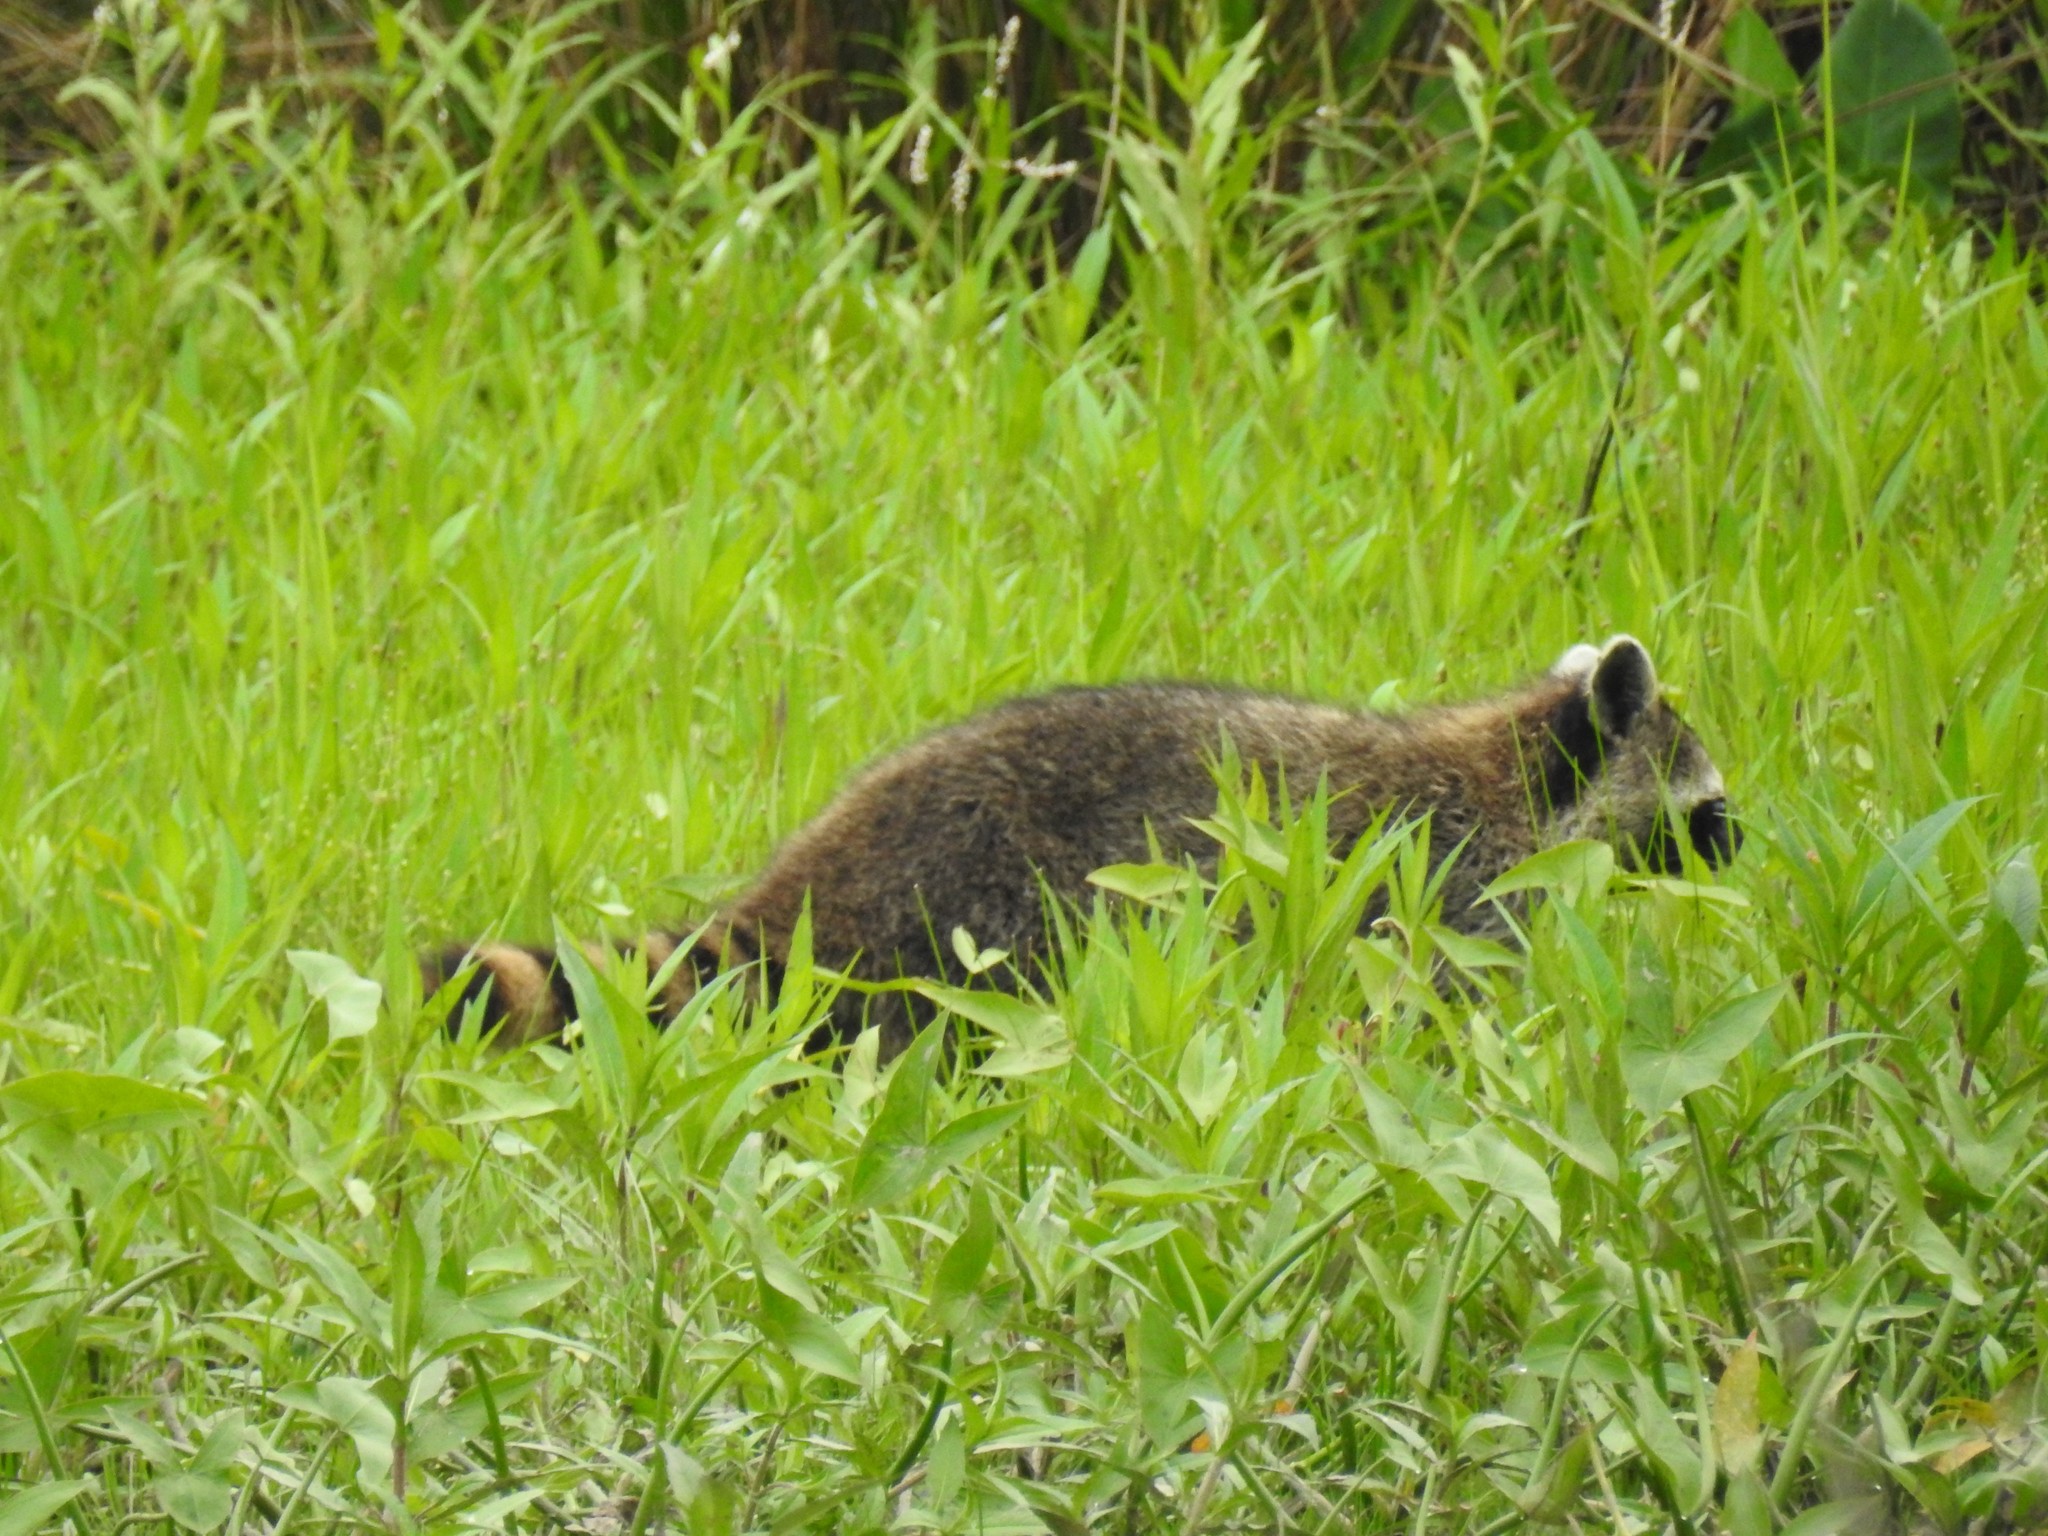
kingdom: Animalia
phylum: Chordata
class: Mammalia
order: Carnivora
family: Procyonidae
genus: Procyon
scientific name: Procyon lotor
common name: Raccoon
